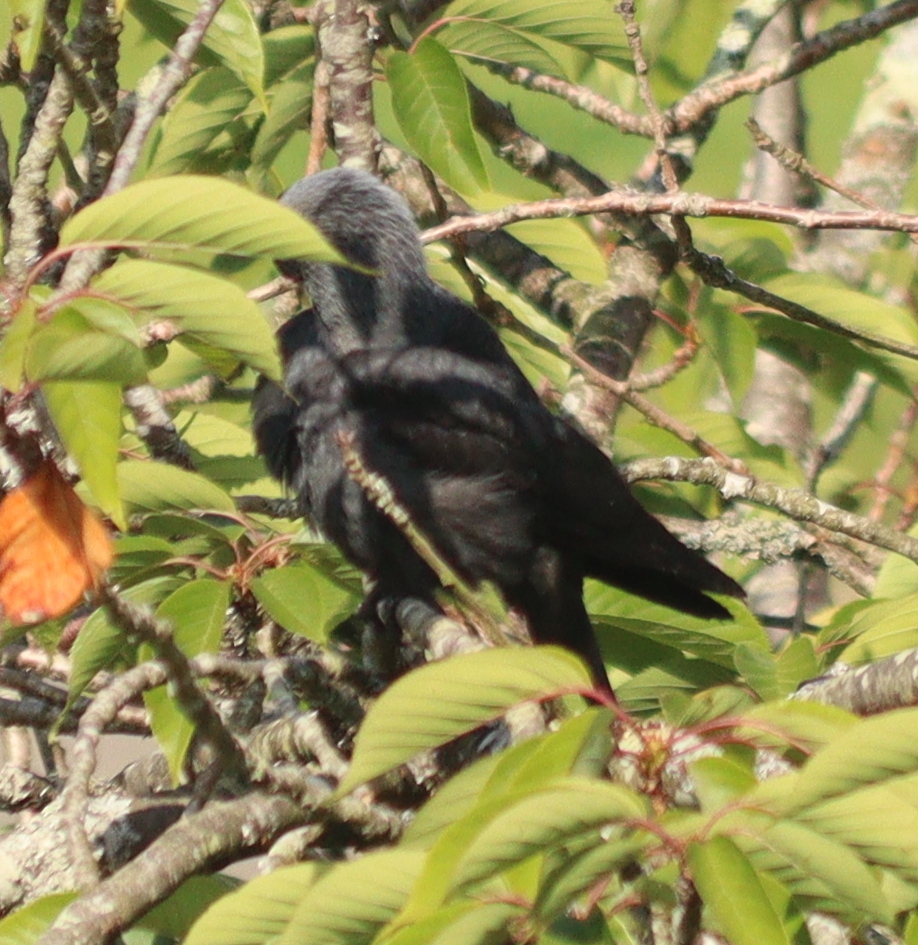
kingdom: Animalia
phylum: Chordata
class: Aves
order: Passeriformes
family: Corvidae
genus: Coloeus
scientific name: Coloeus monedula
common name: Western jackdaw
